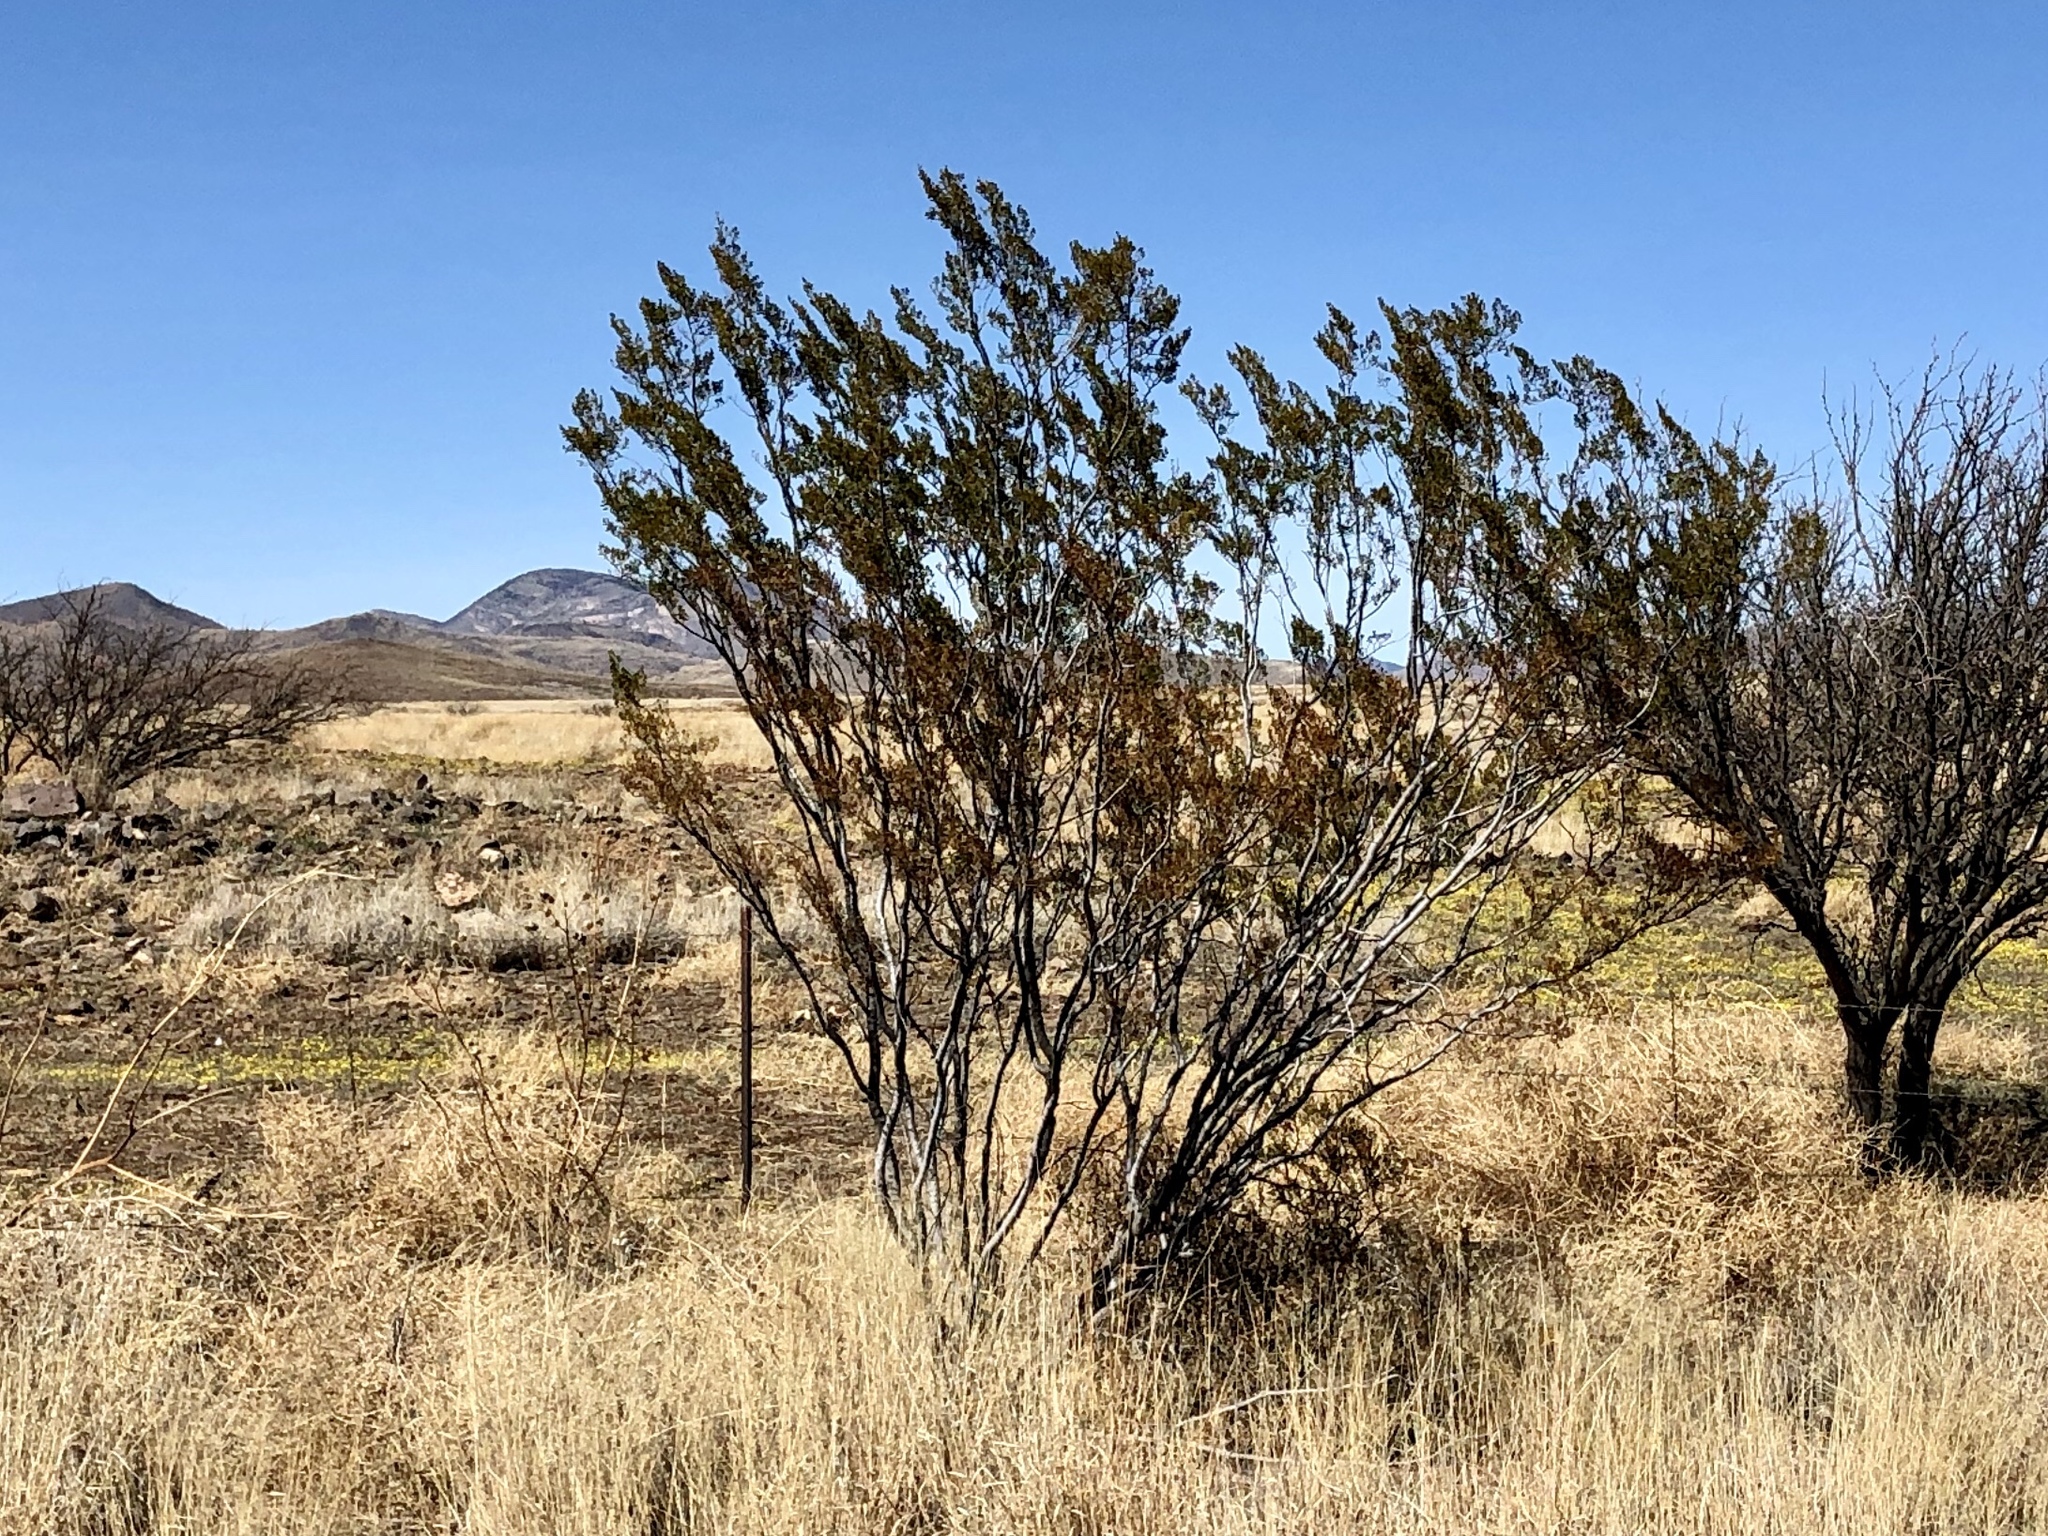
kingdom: Plantae
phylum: Tracheophyta
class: Magnoliopsida
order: Zygophyllales
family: Zygophyllaceae
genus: Larrea
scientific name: Larrea tridentata
